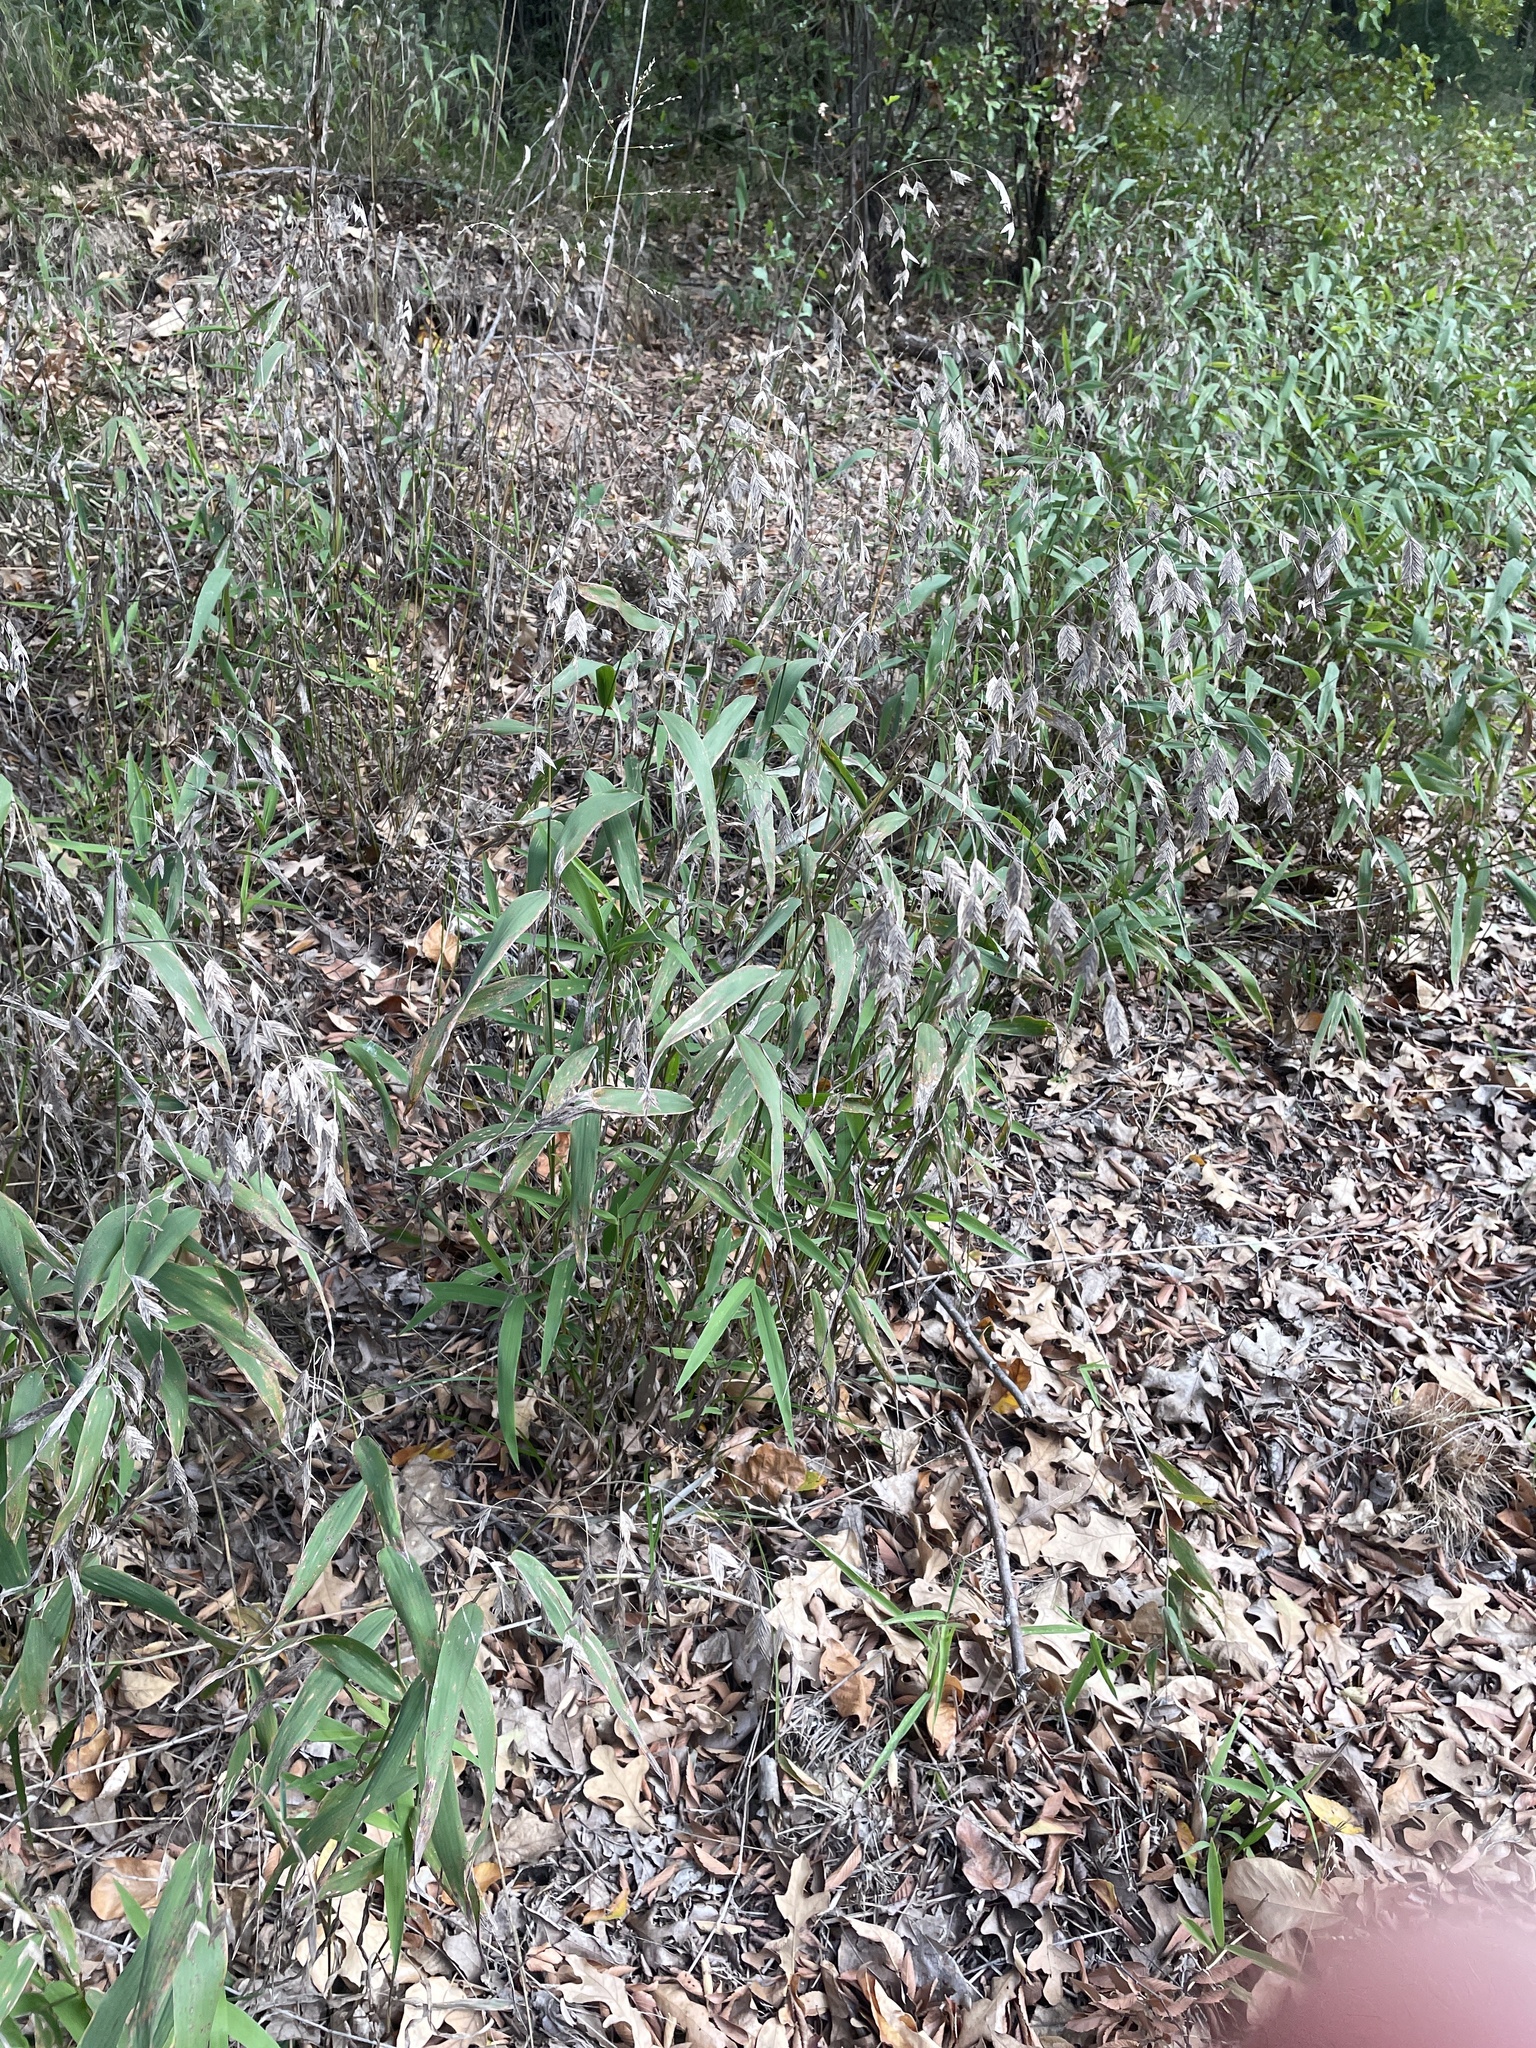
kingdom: Plantae
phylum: Tracheophyta
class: Liliopsida
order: Poales
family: Poaceae
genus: Chasmanthium
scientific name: Chasmanthium latifolium
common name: Broad-leaved chasmanthium
